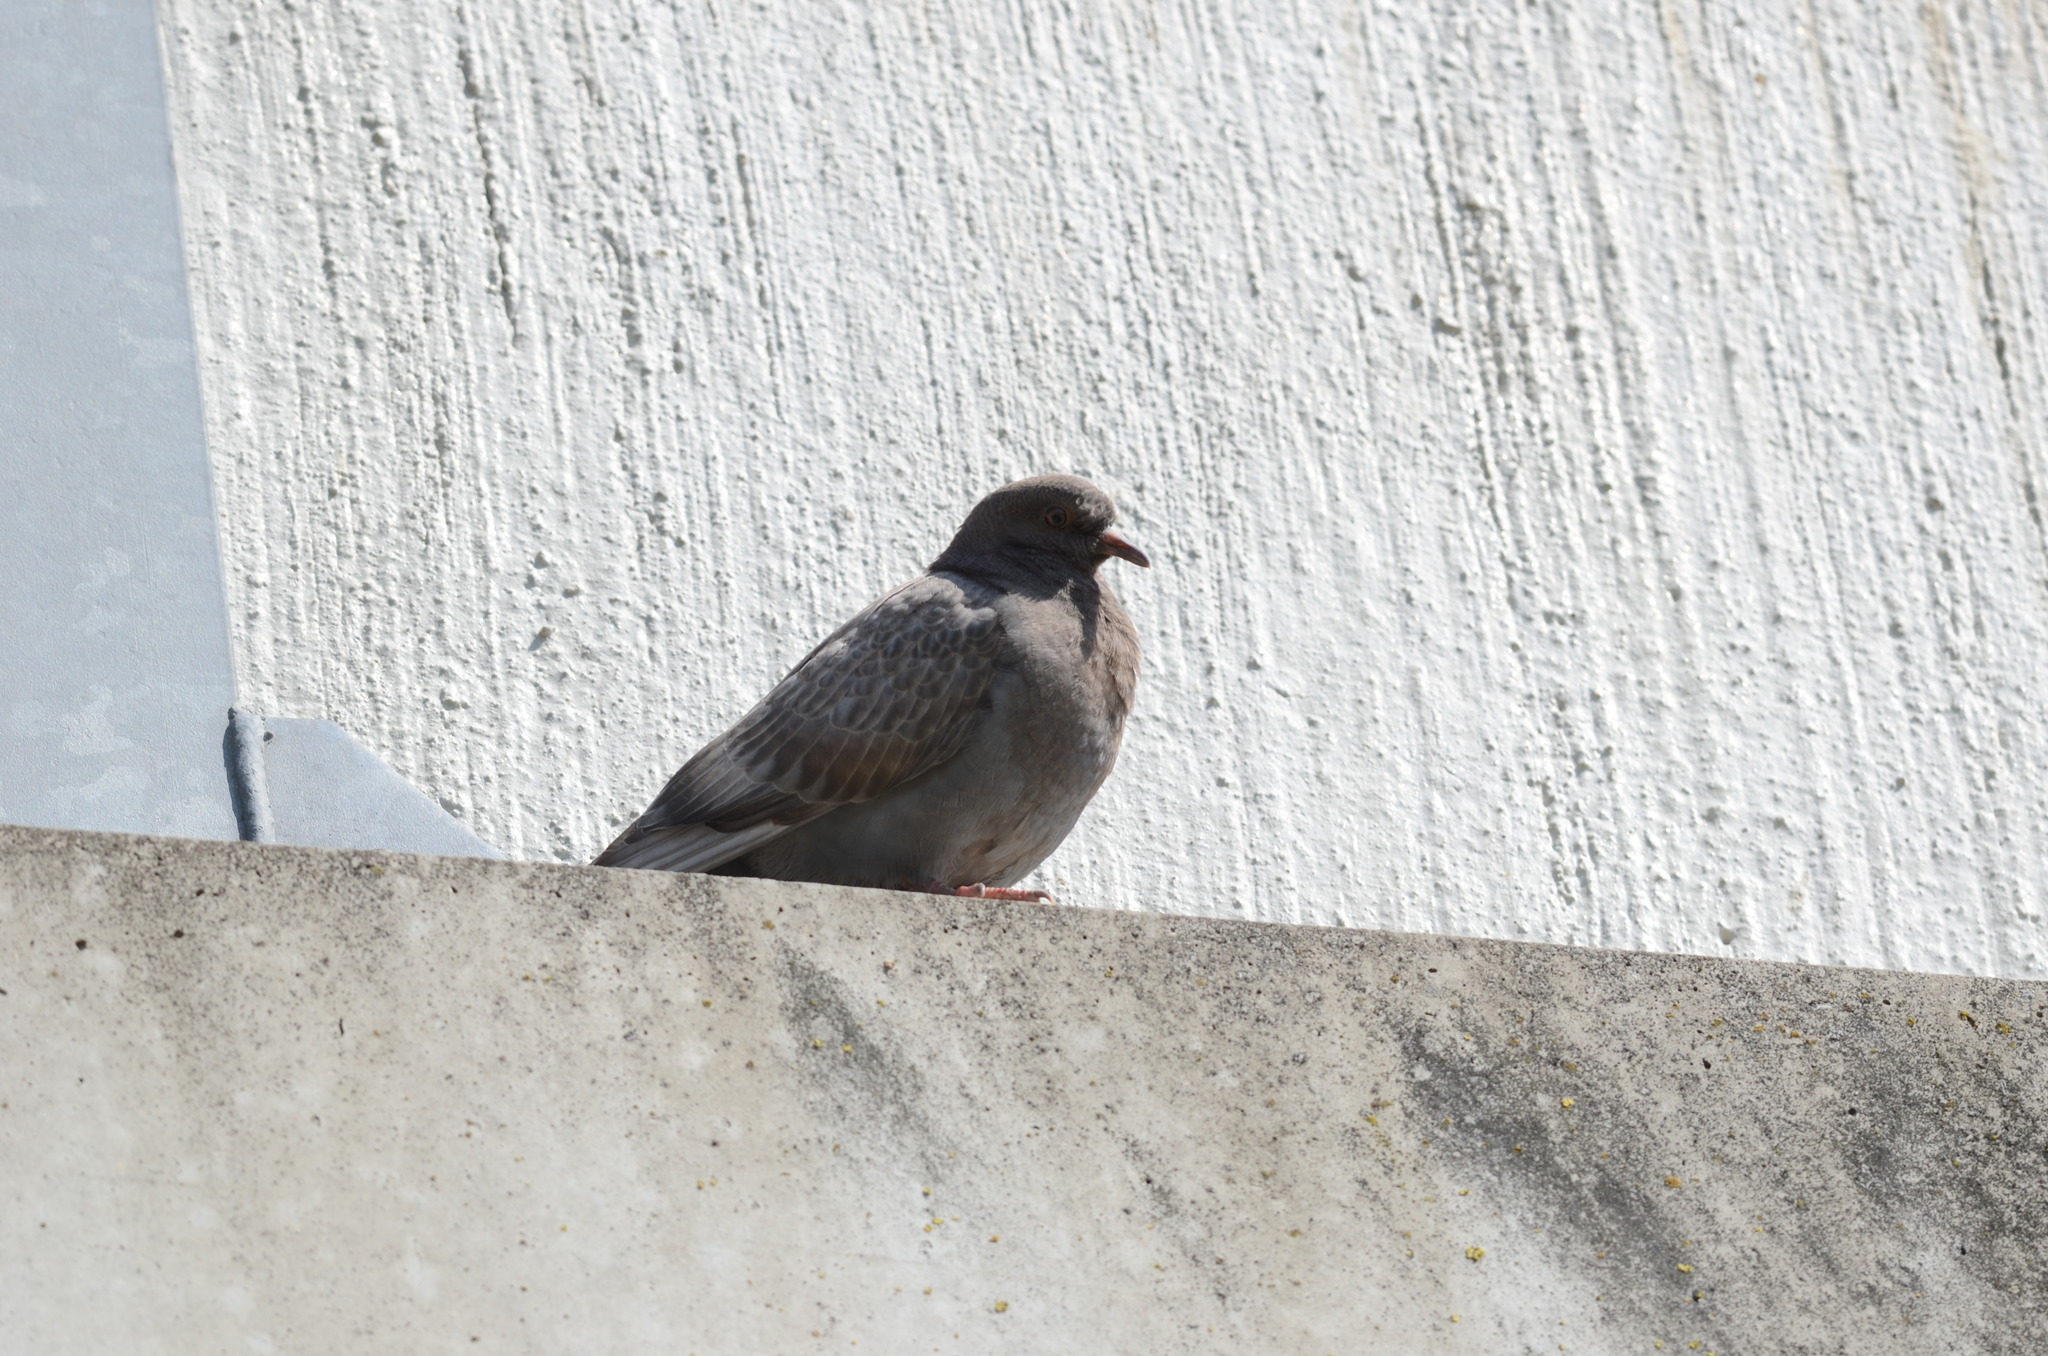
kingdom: Animalia
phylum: Chordata
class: Aves
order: Columbiformes
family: Columbidae
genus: Columba
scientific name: Columba livia
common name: Rock pigeon
